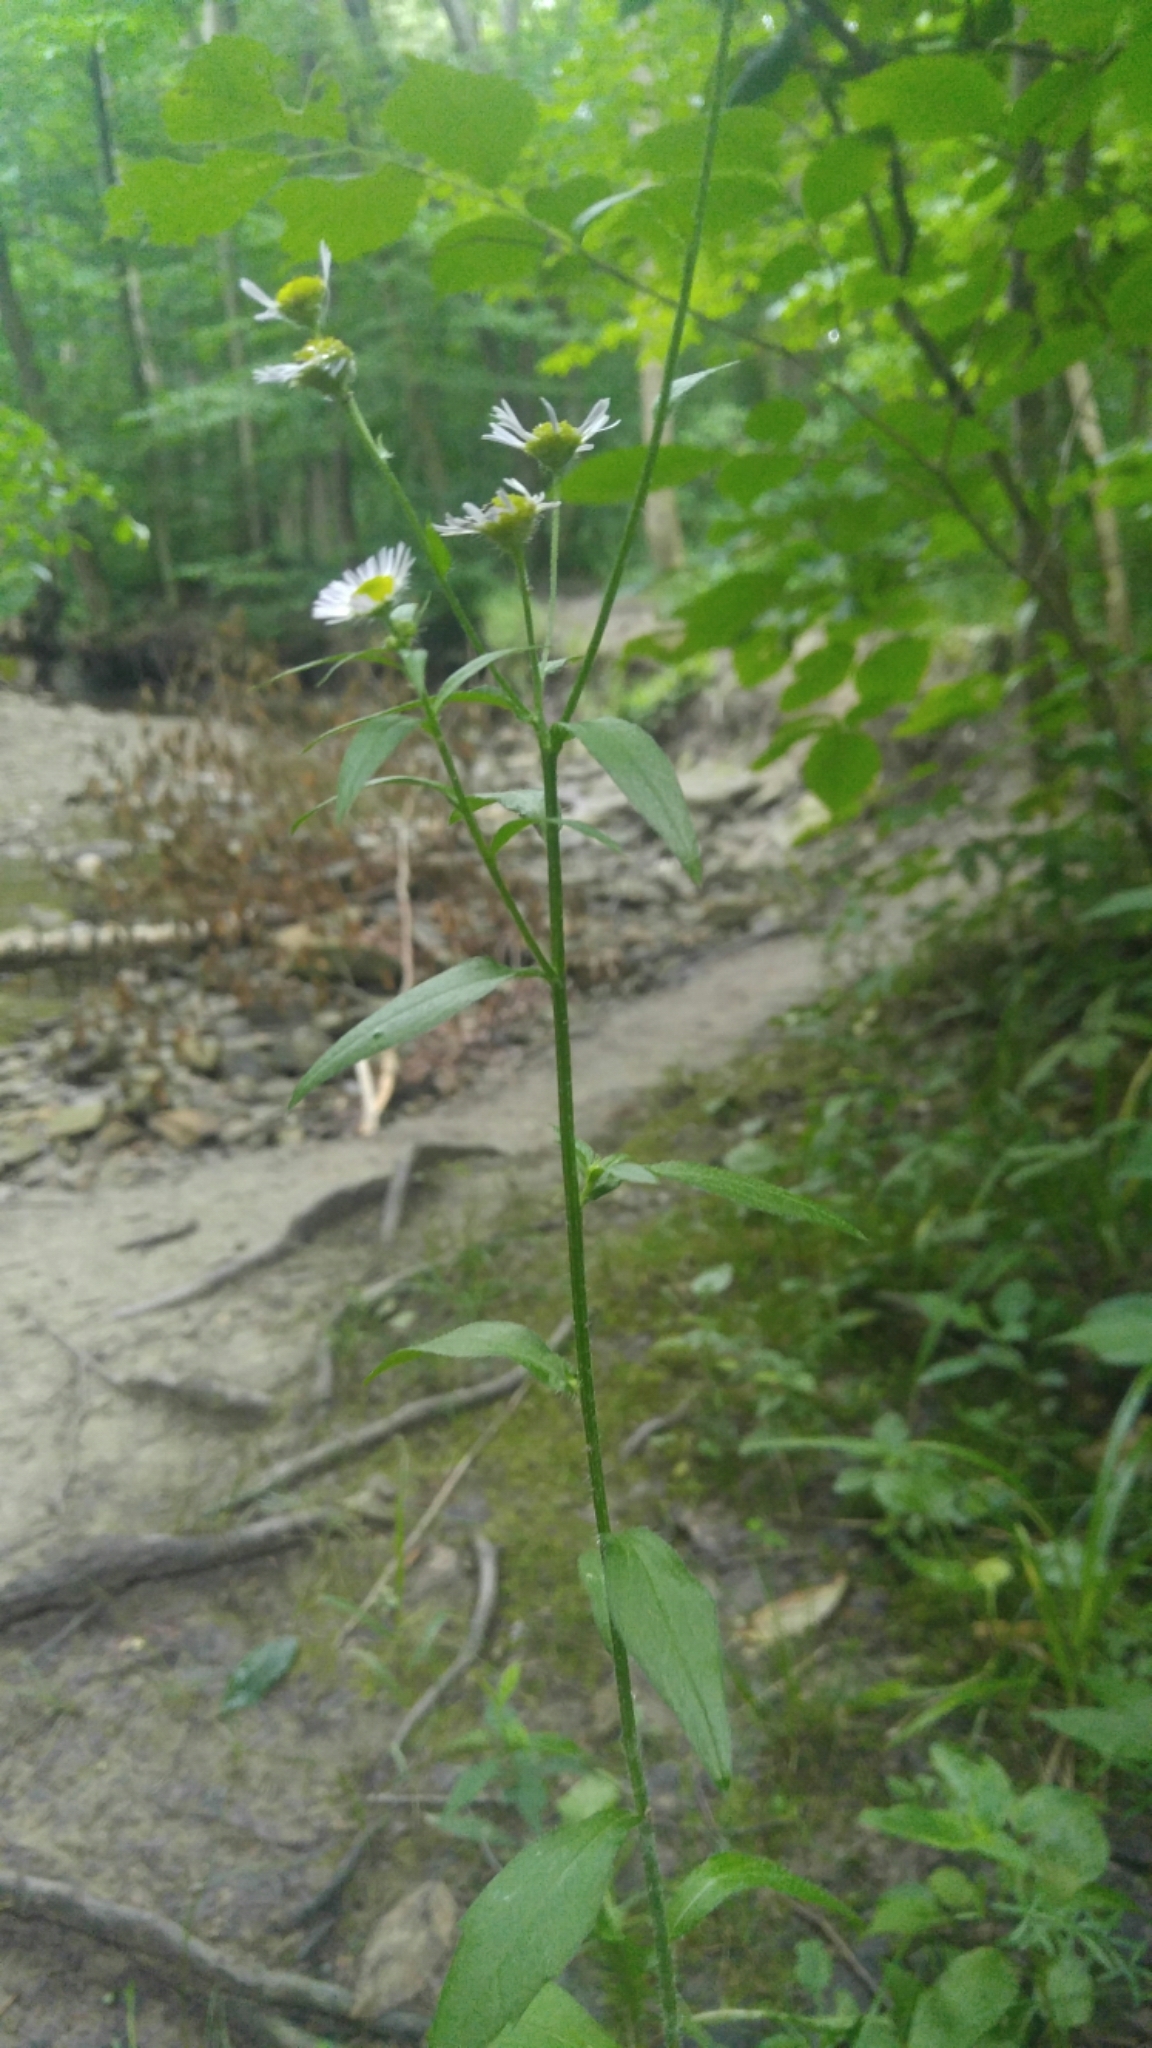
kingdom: Plantae
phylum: Tracheophyta
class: Magnoliopsida
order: Asterales
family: Asteraceae
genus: Erigeron
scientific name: Erigeron annuus
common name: Tall fleabane
